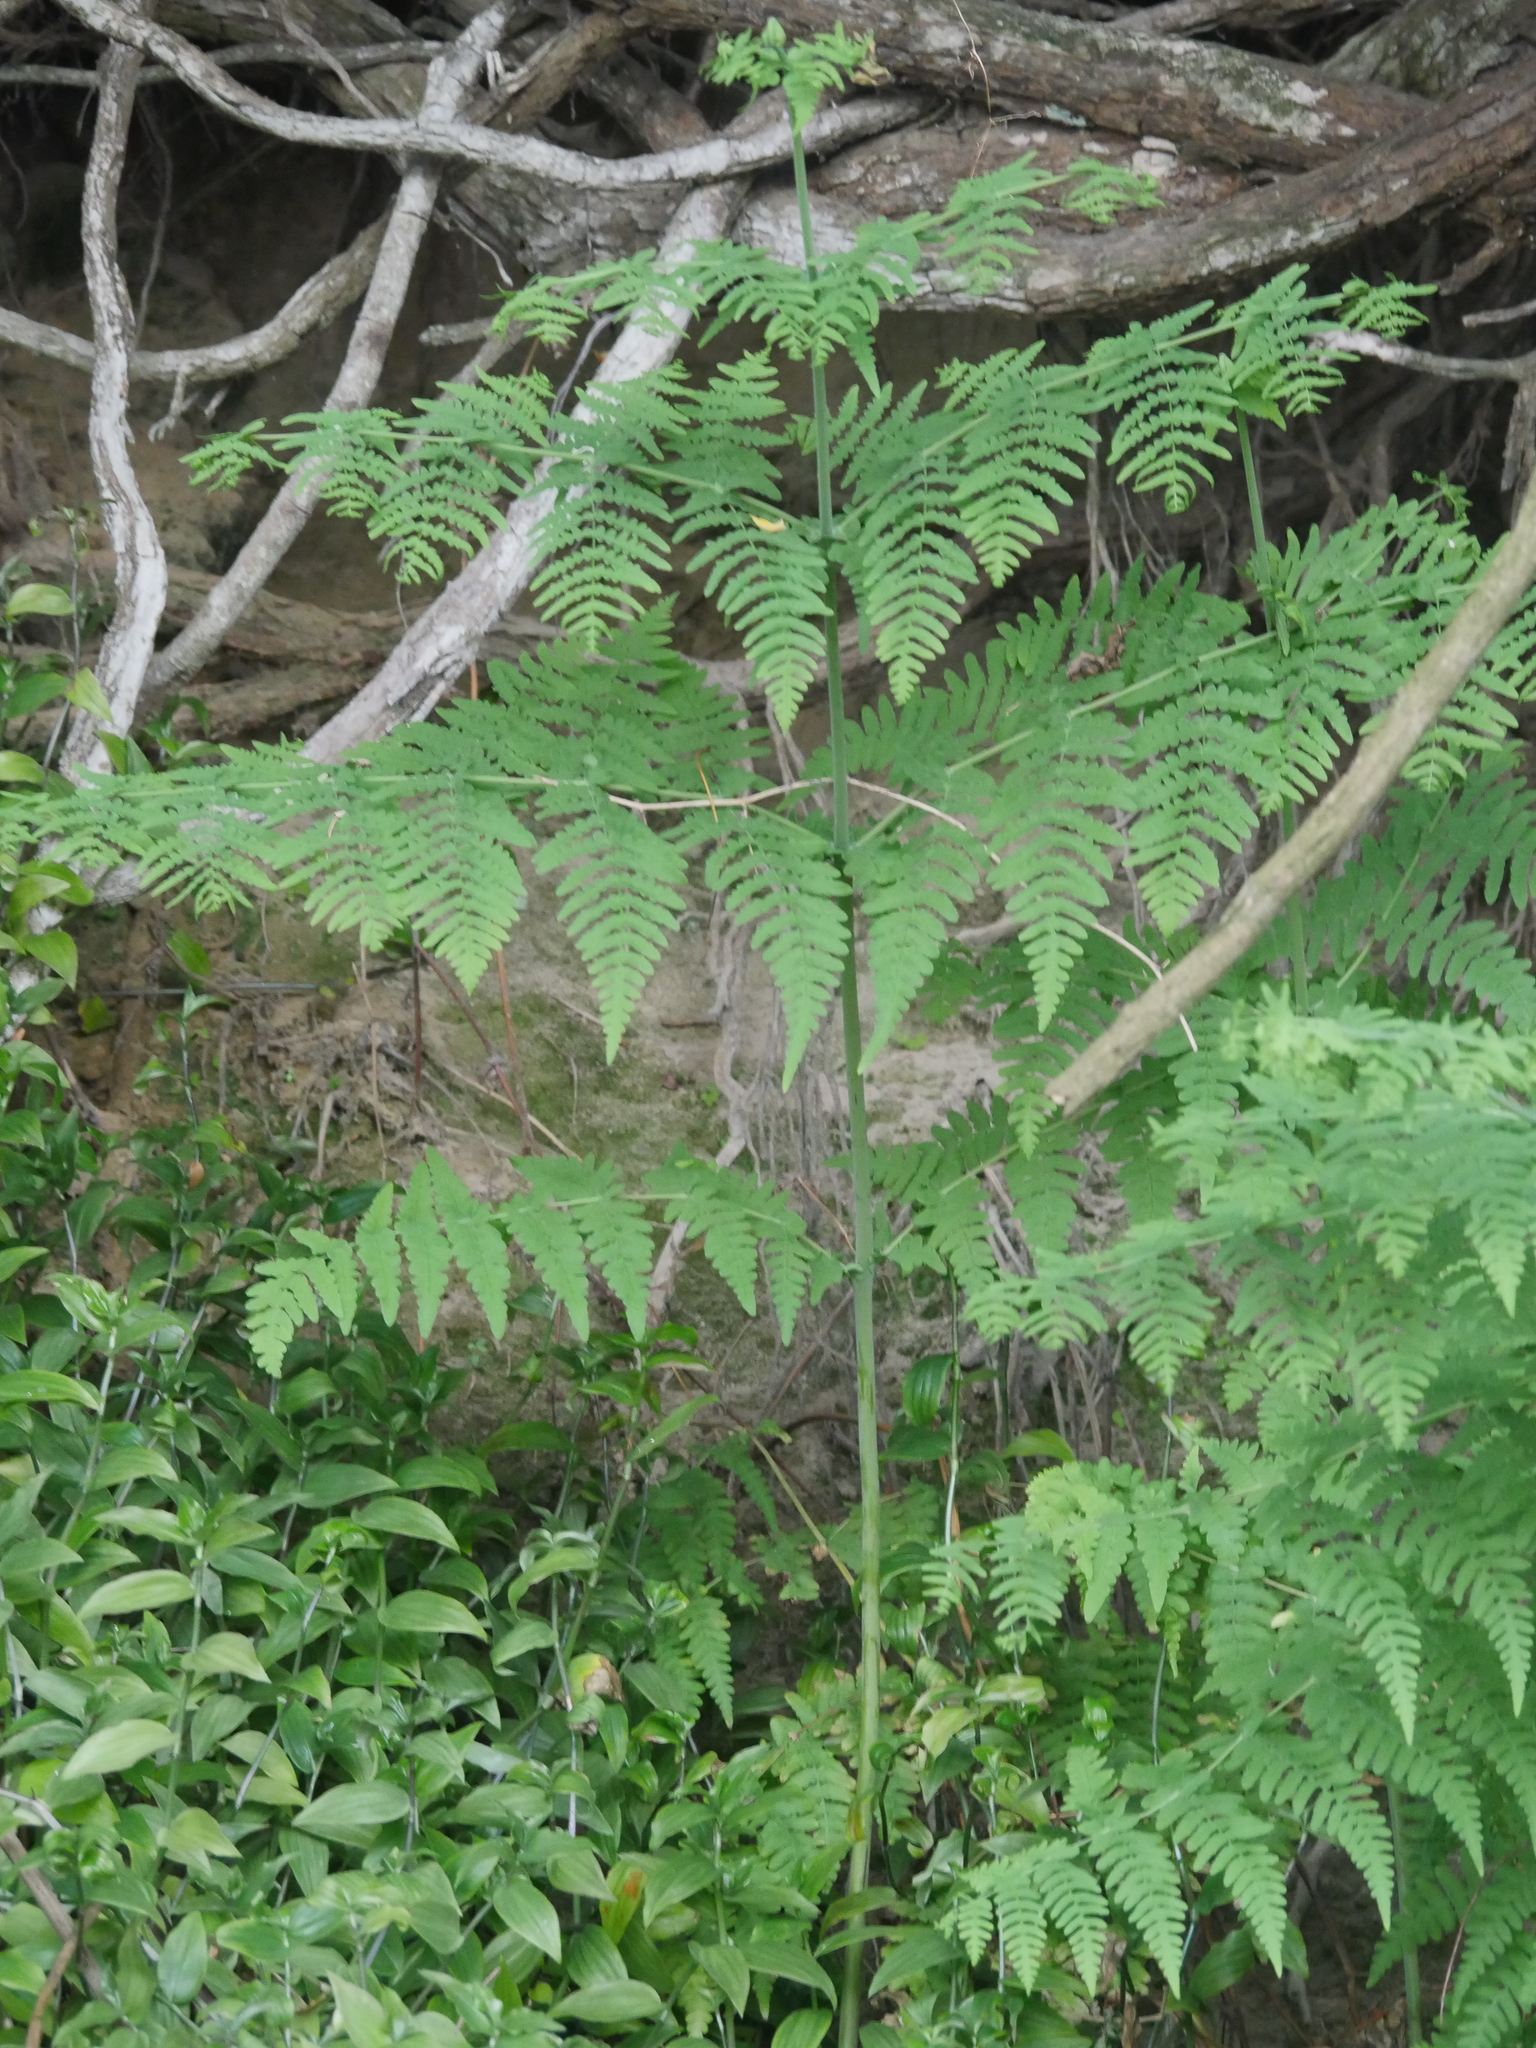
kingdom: Plantae
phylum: Tracheophyta
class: Polypodiopsida
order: Polypodiales
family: Dennstaedtiaceae
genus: Histiopteris
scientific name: Histiopteris incisa
